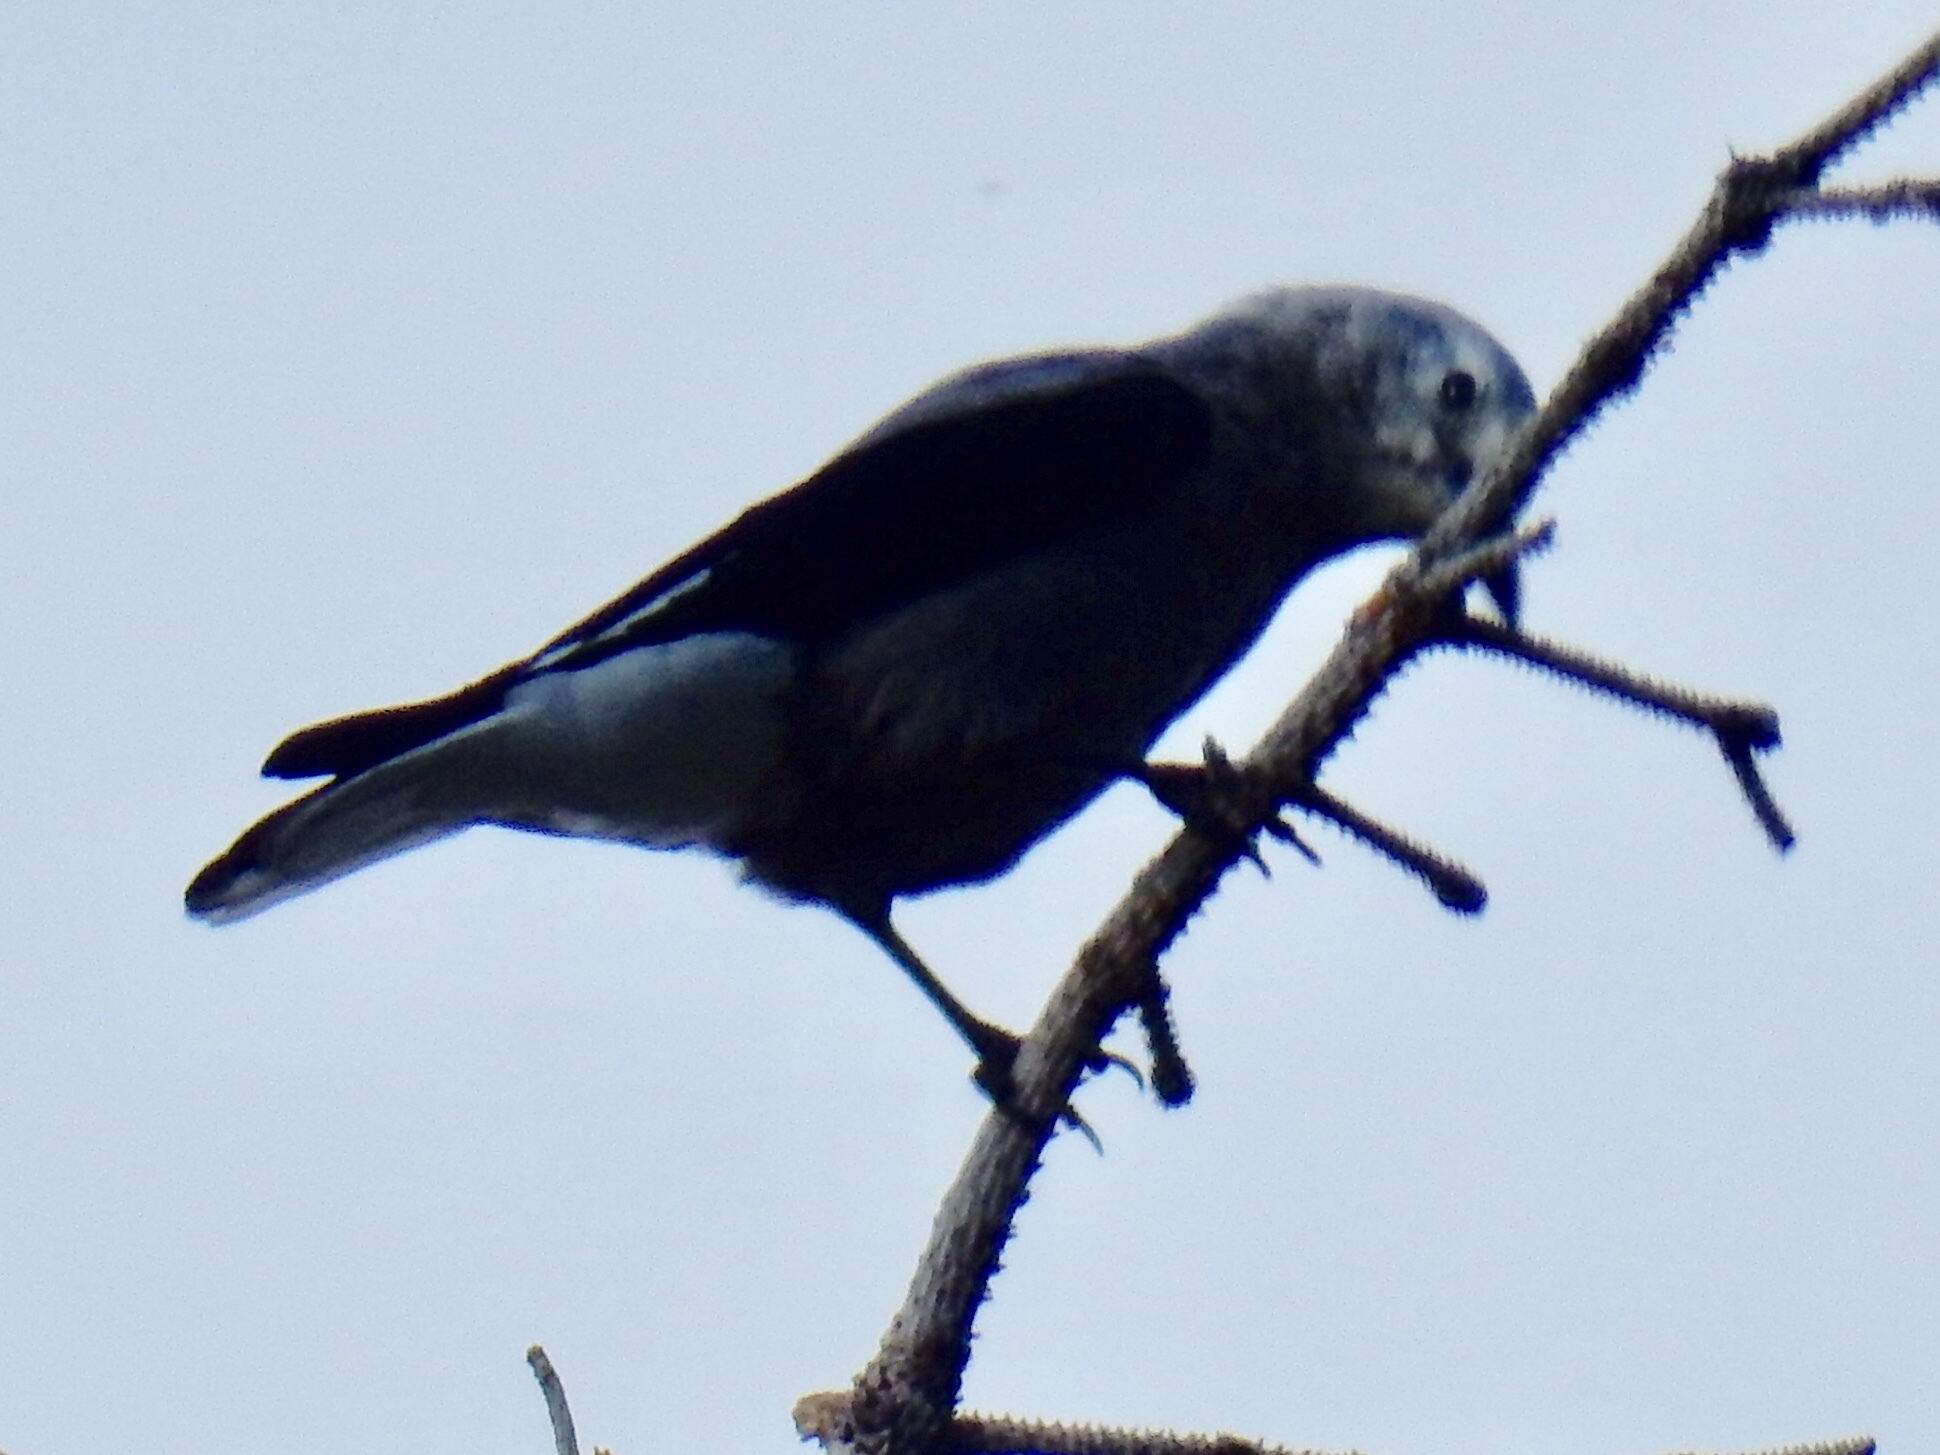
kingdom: Animalia
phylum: Chordata
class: Aves
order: Passeriformes
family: Corvidae
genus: Nucifraga
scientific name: Nucifraga columbiana
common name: Clark's nutcracker
